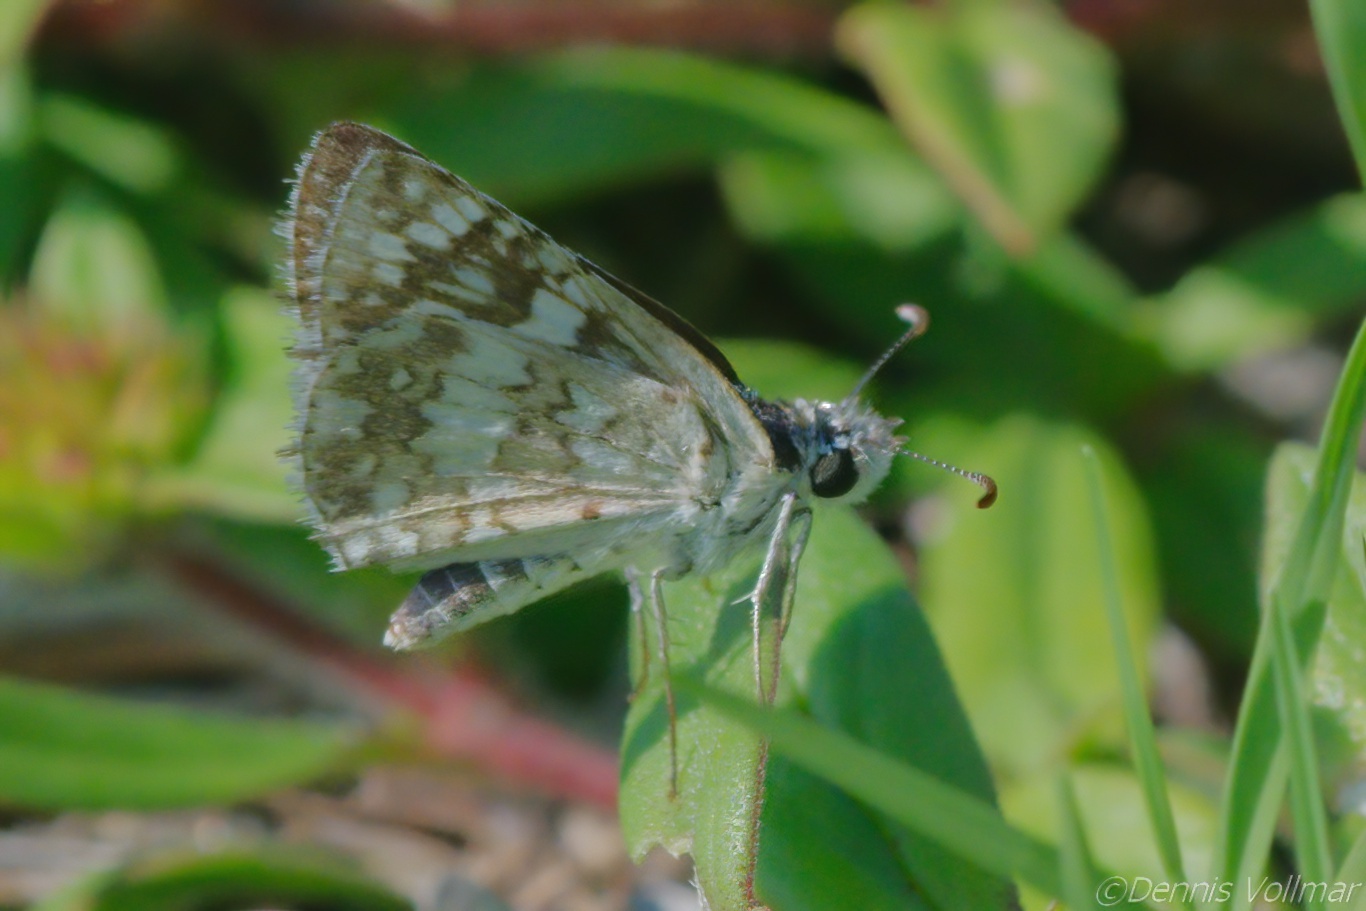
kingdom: Animalia
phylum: Arthropoda
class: Insecta
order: Lepidoptera
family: Hesperiidae
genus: Burnsius
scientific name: Burnsius albezens
